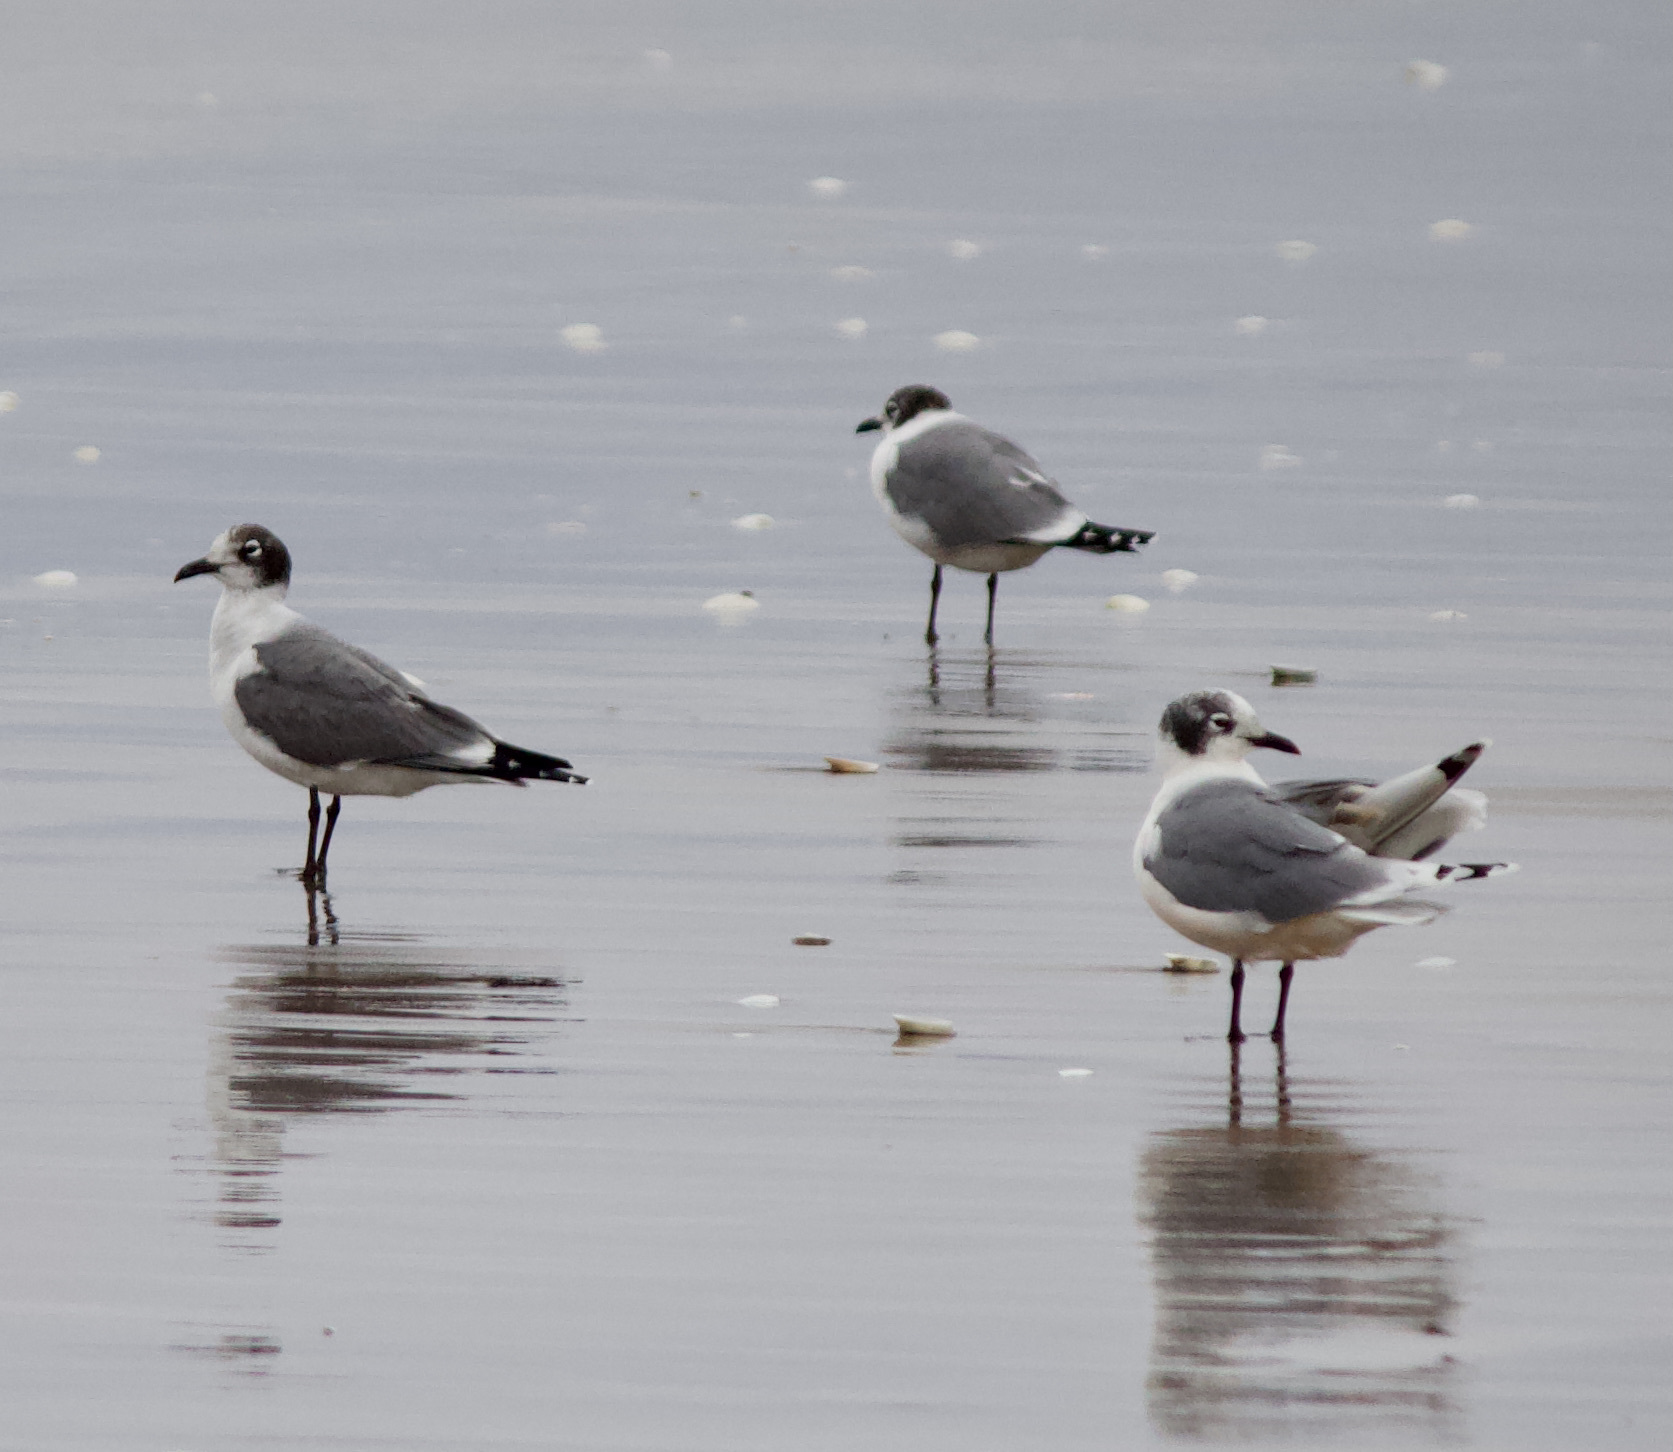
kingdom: Animalia
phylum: Chordata
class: Aves
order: Charadriiformes
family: Laridae
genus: Leucophaeus
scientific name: Leucophaeus pipixcan
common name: Franklin's gull
